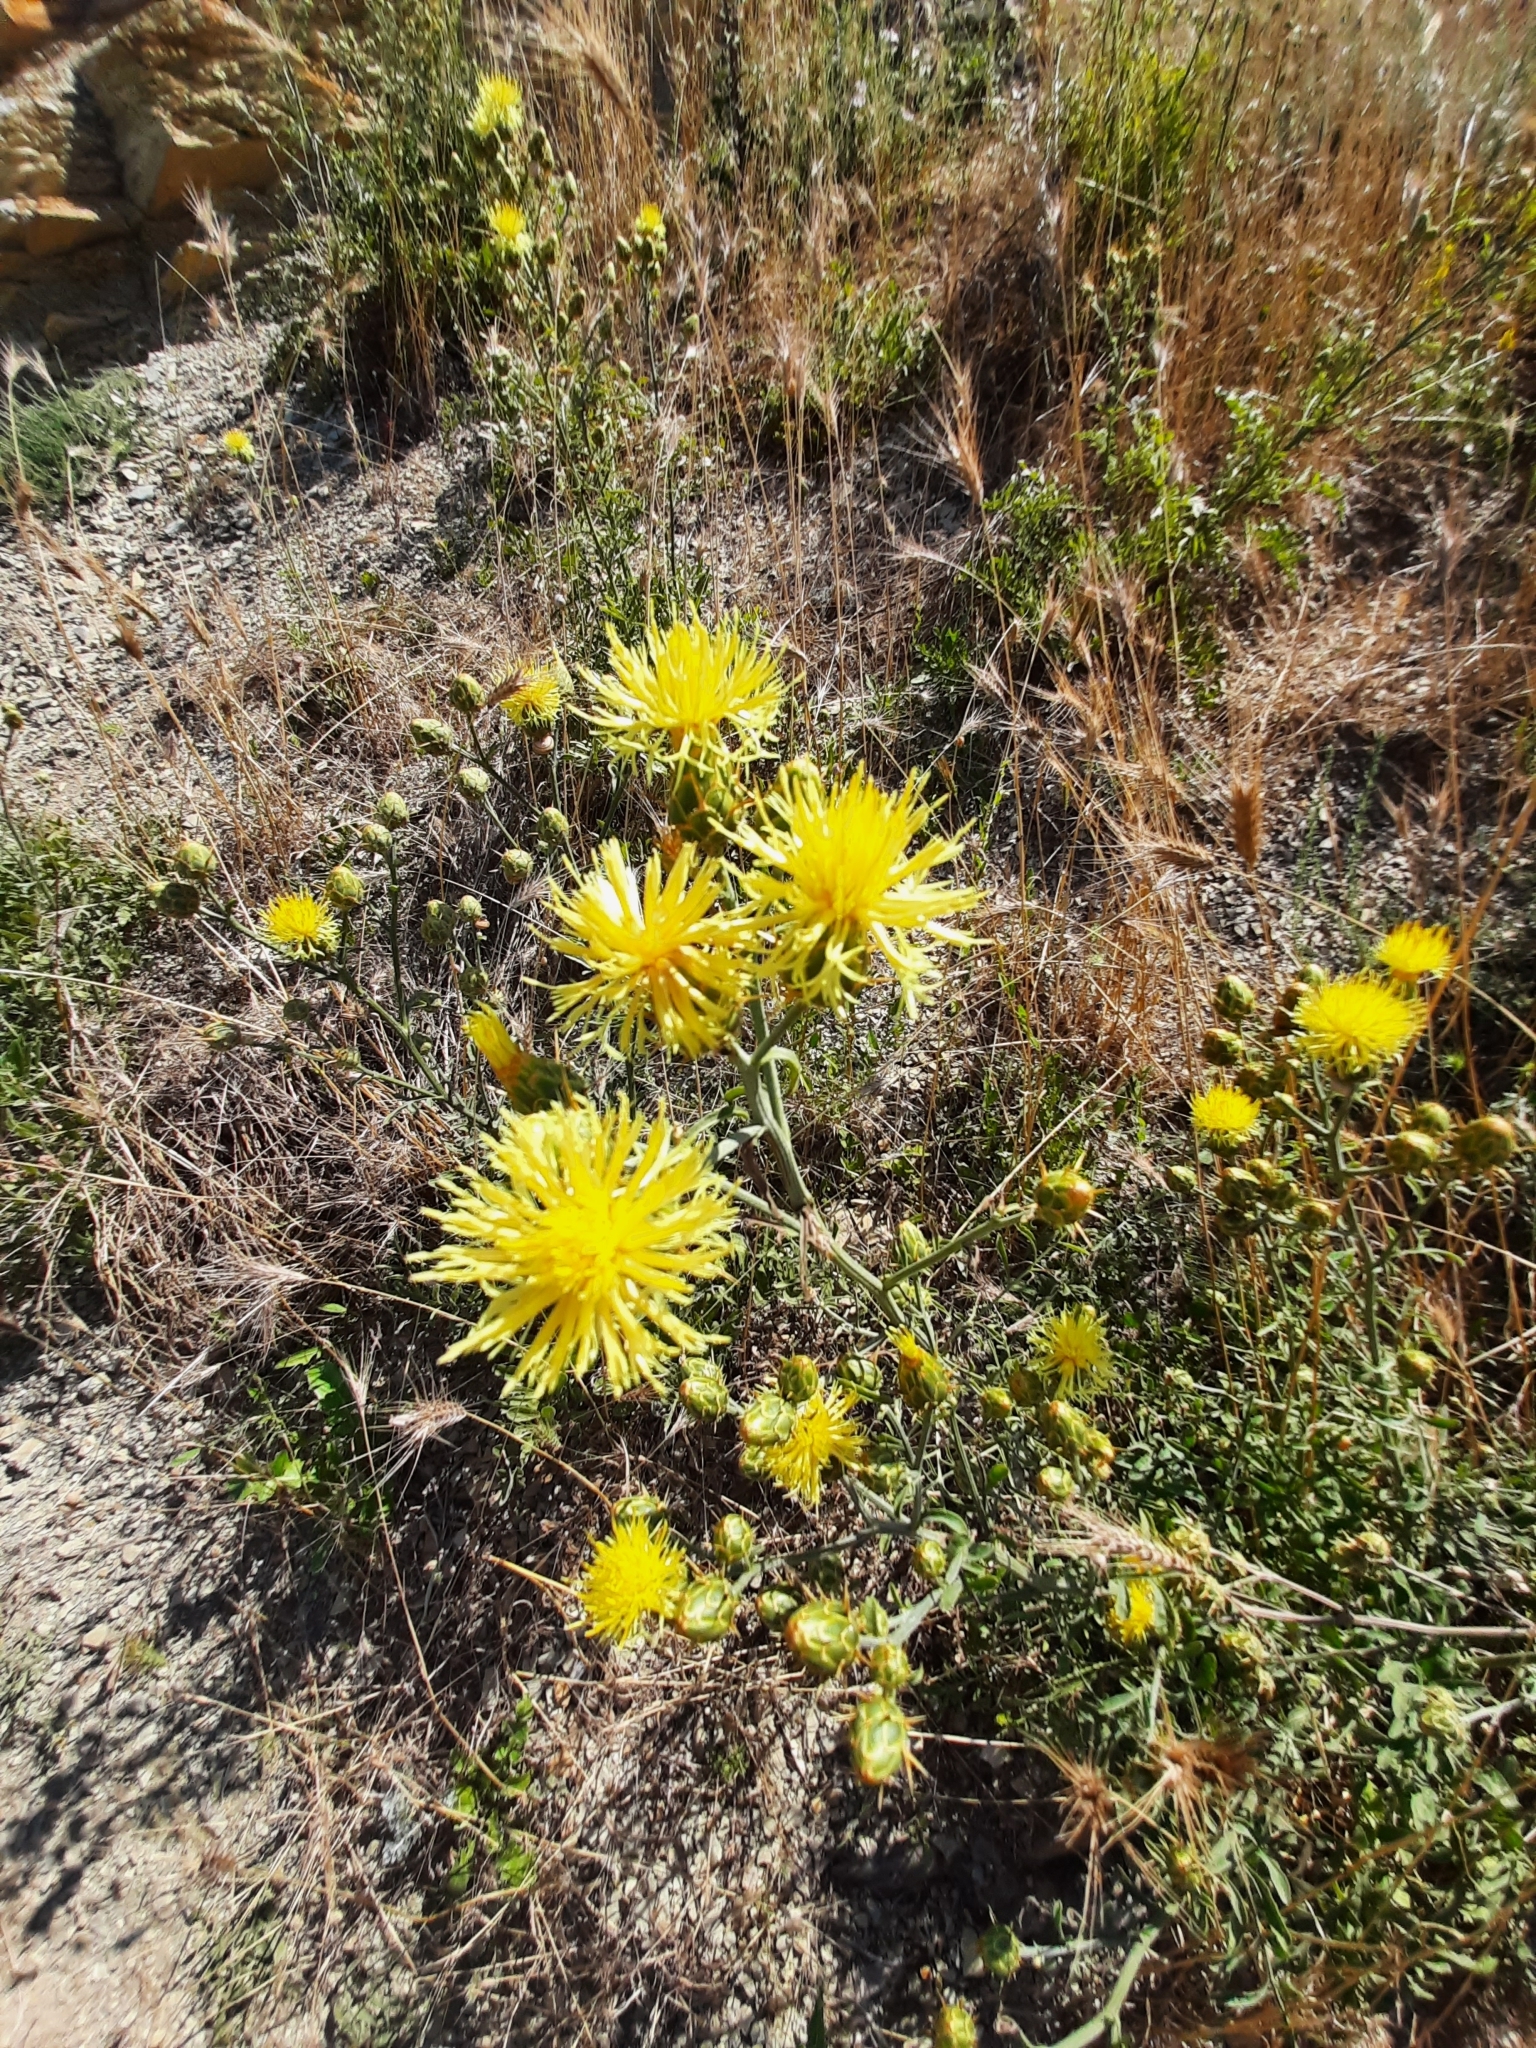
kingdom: Plantae
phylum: Tracheophyta
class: Magnoliopsida
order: Asterales
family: Asteraceae
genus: Centaurea
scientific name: Centaurea salonitana
